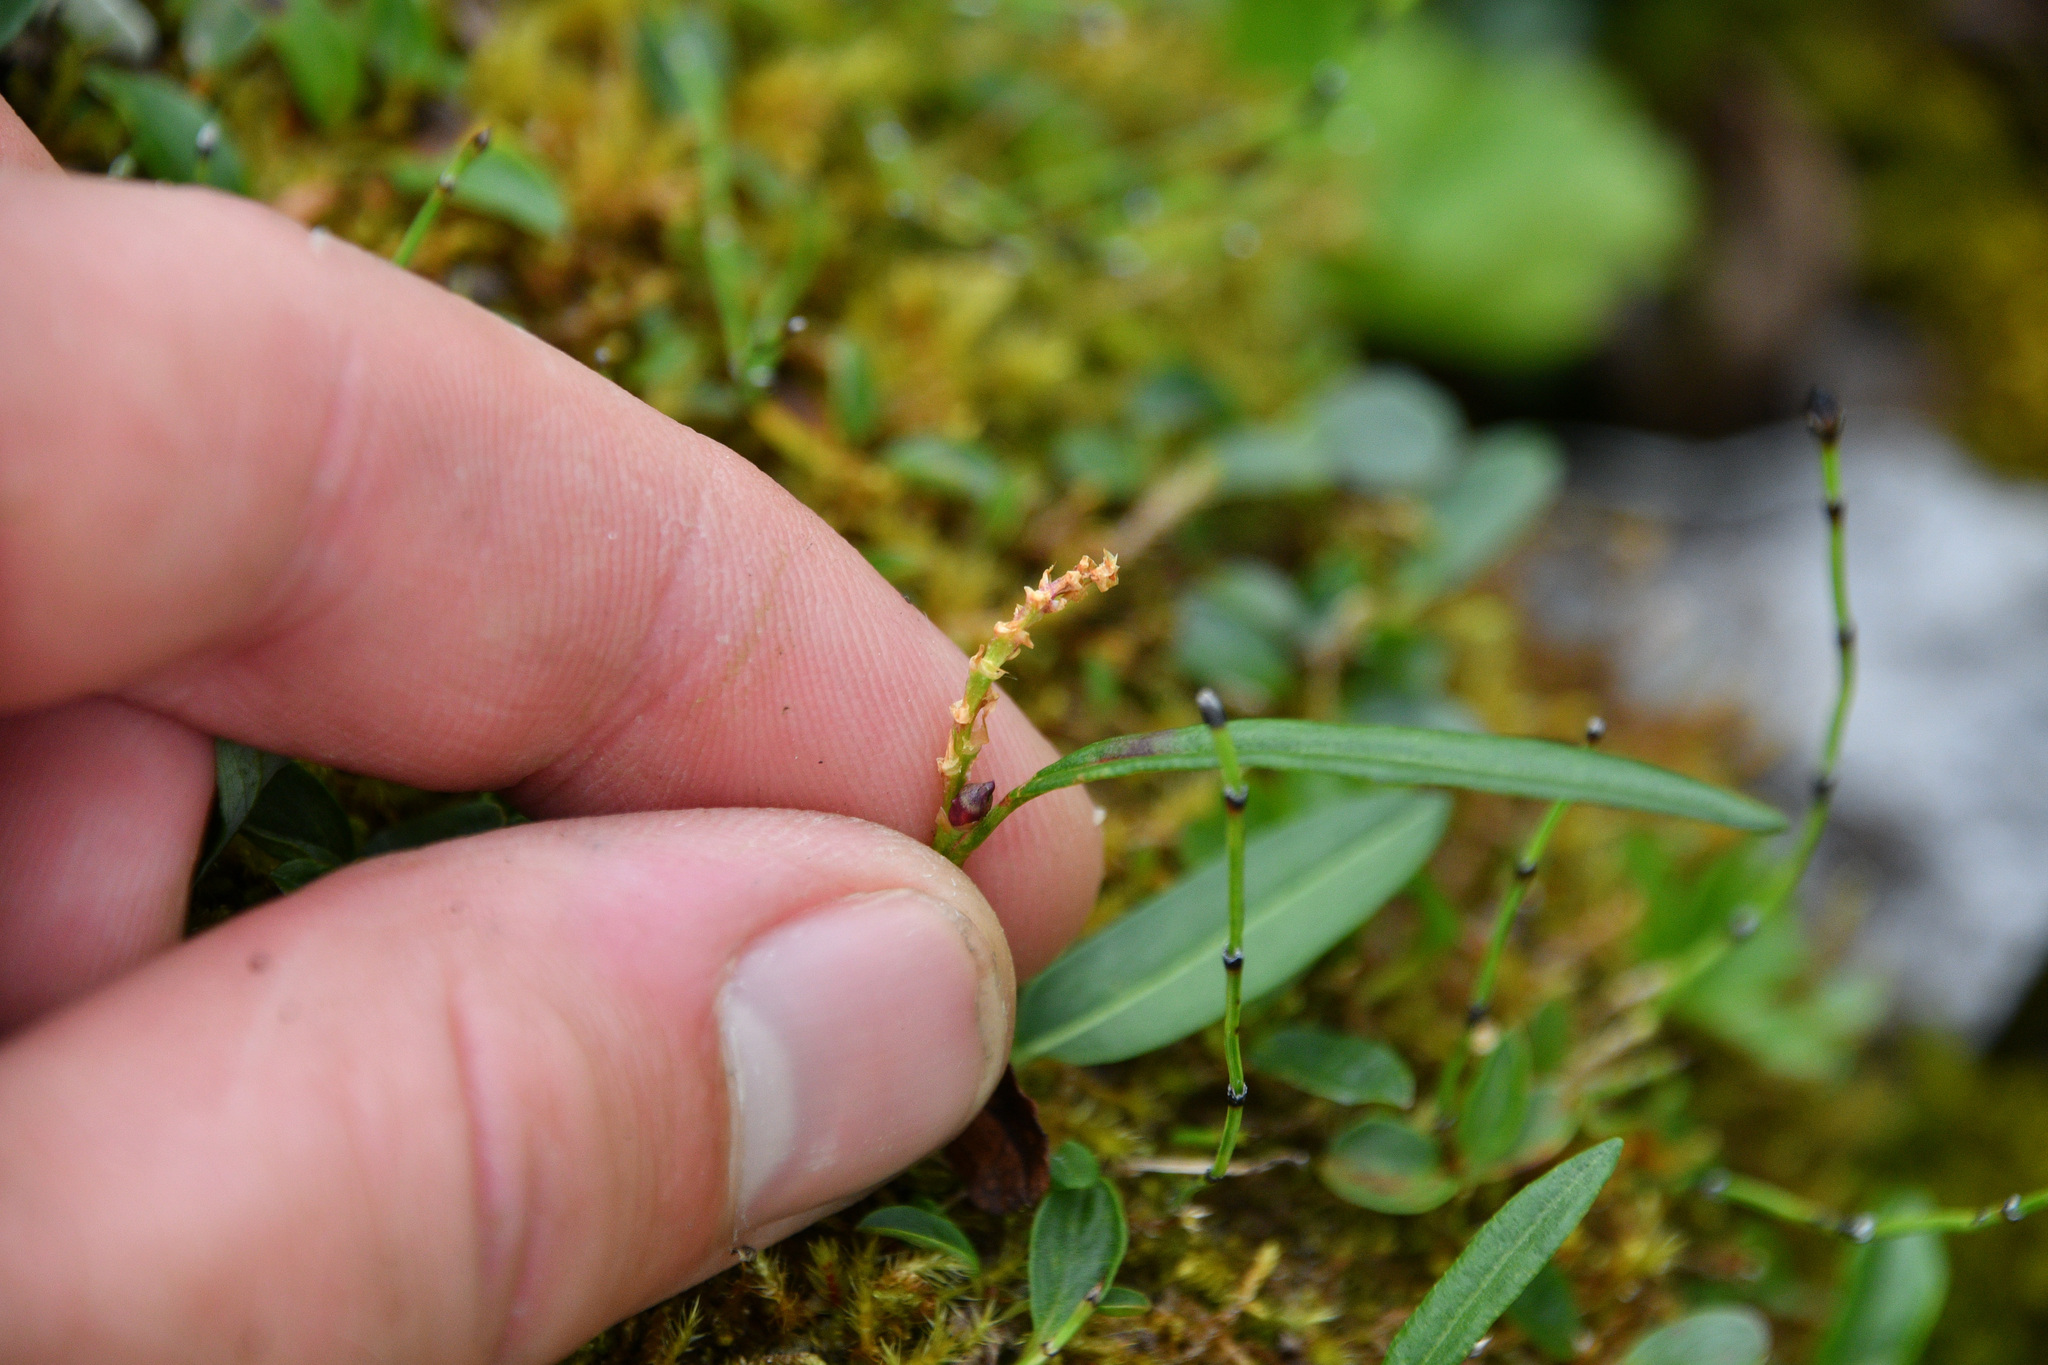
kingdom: Plantae
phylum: Tracheophyta
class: Magnoliopsida
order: Caryophyllales
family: Polygonaceae
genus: Bistorta
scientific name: Bistorta vivipara
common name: Alpine bistort
